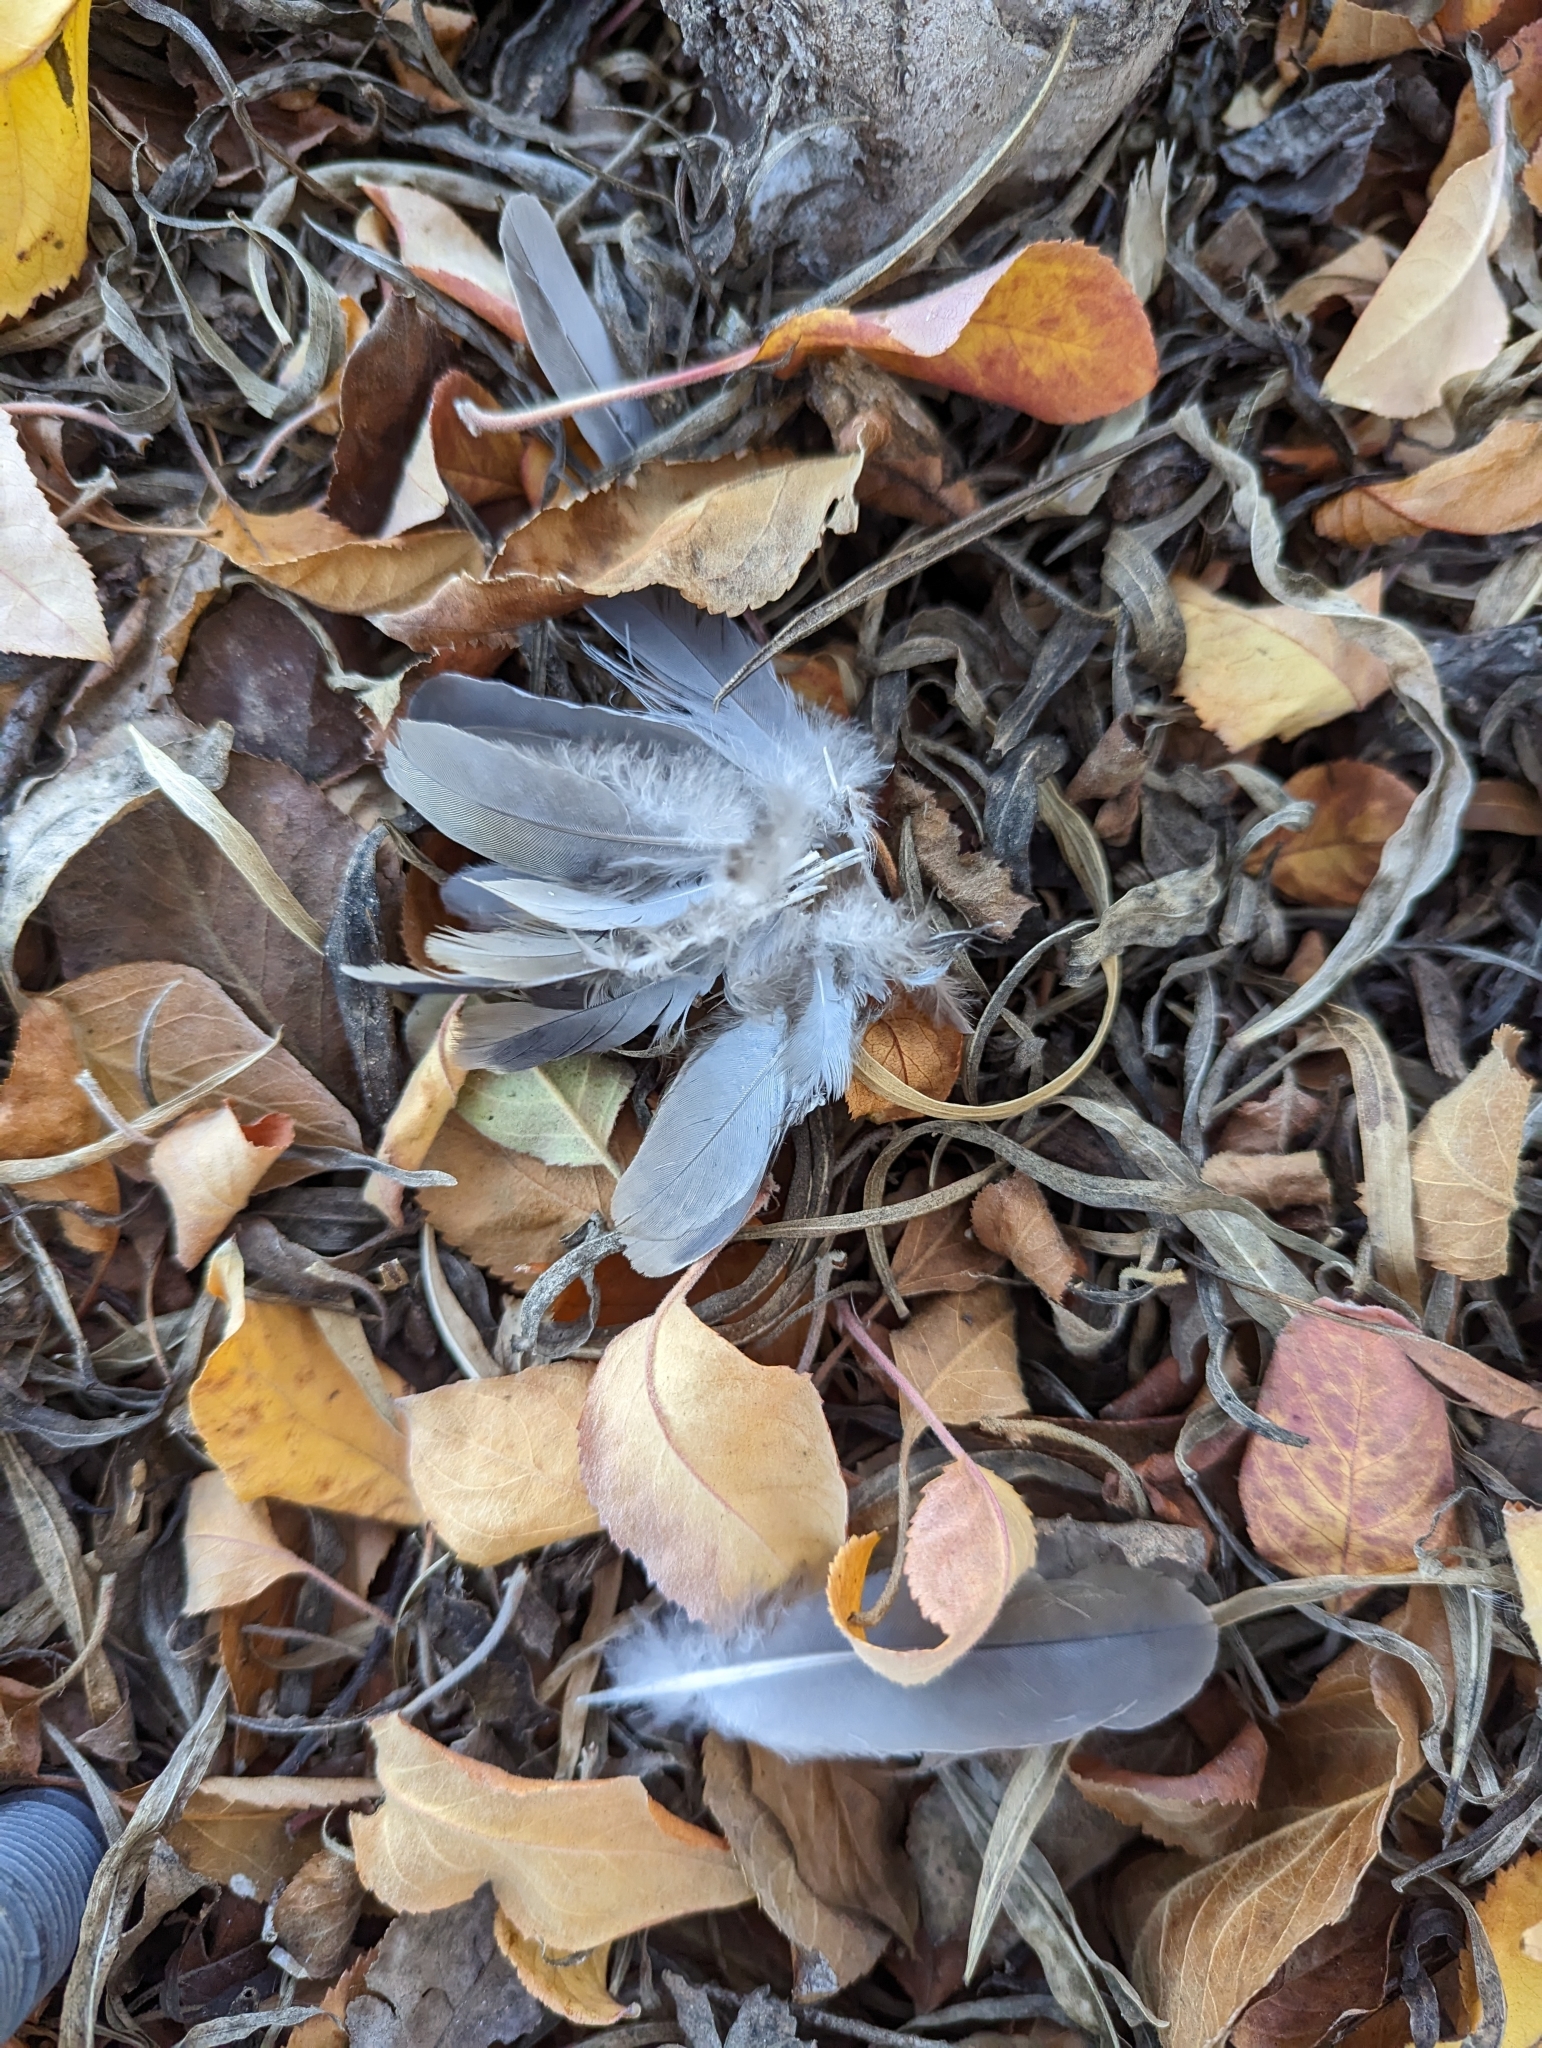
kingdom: Animalia
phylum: Chordata
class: Aves
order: Columbiformes
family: Columbidae
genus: Zenaida
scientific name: Zenaida macroura
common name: Mourning dove
